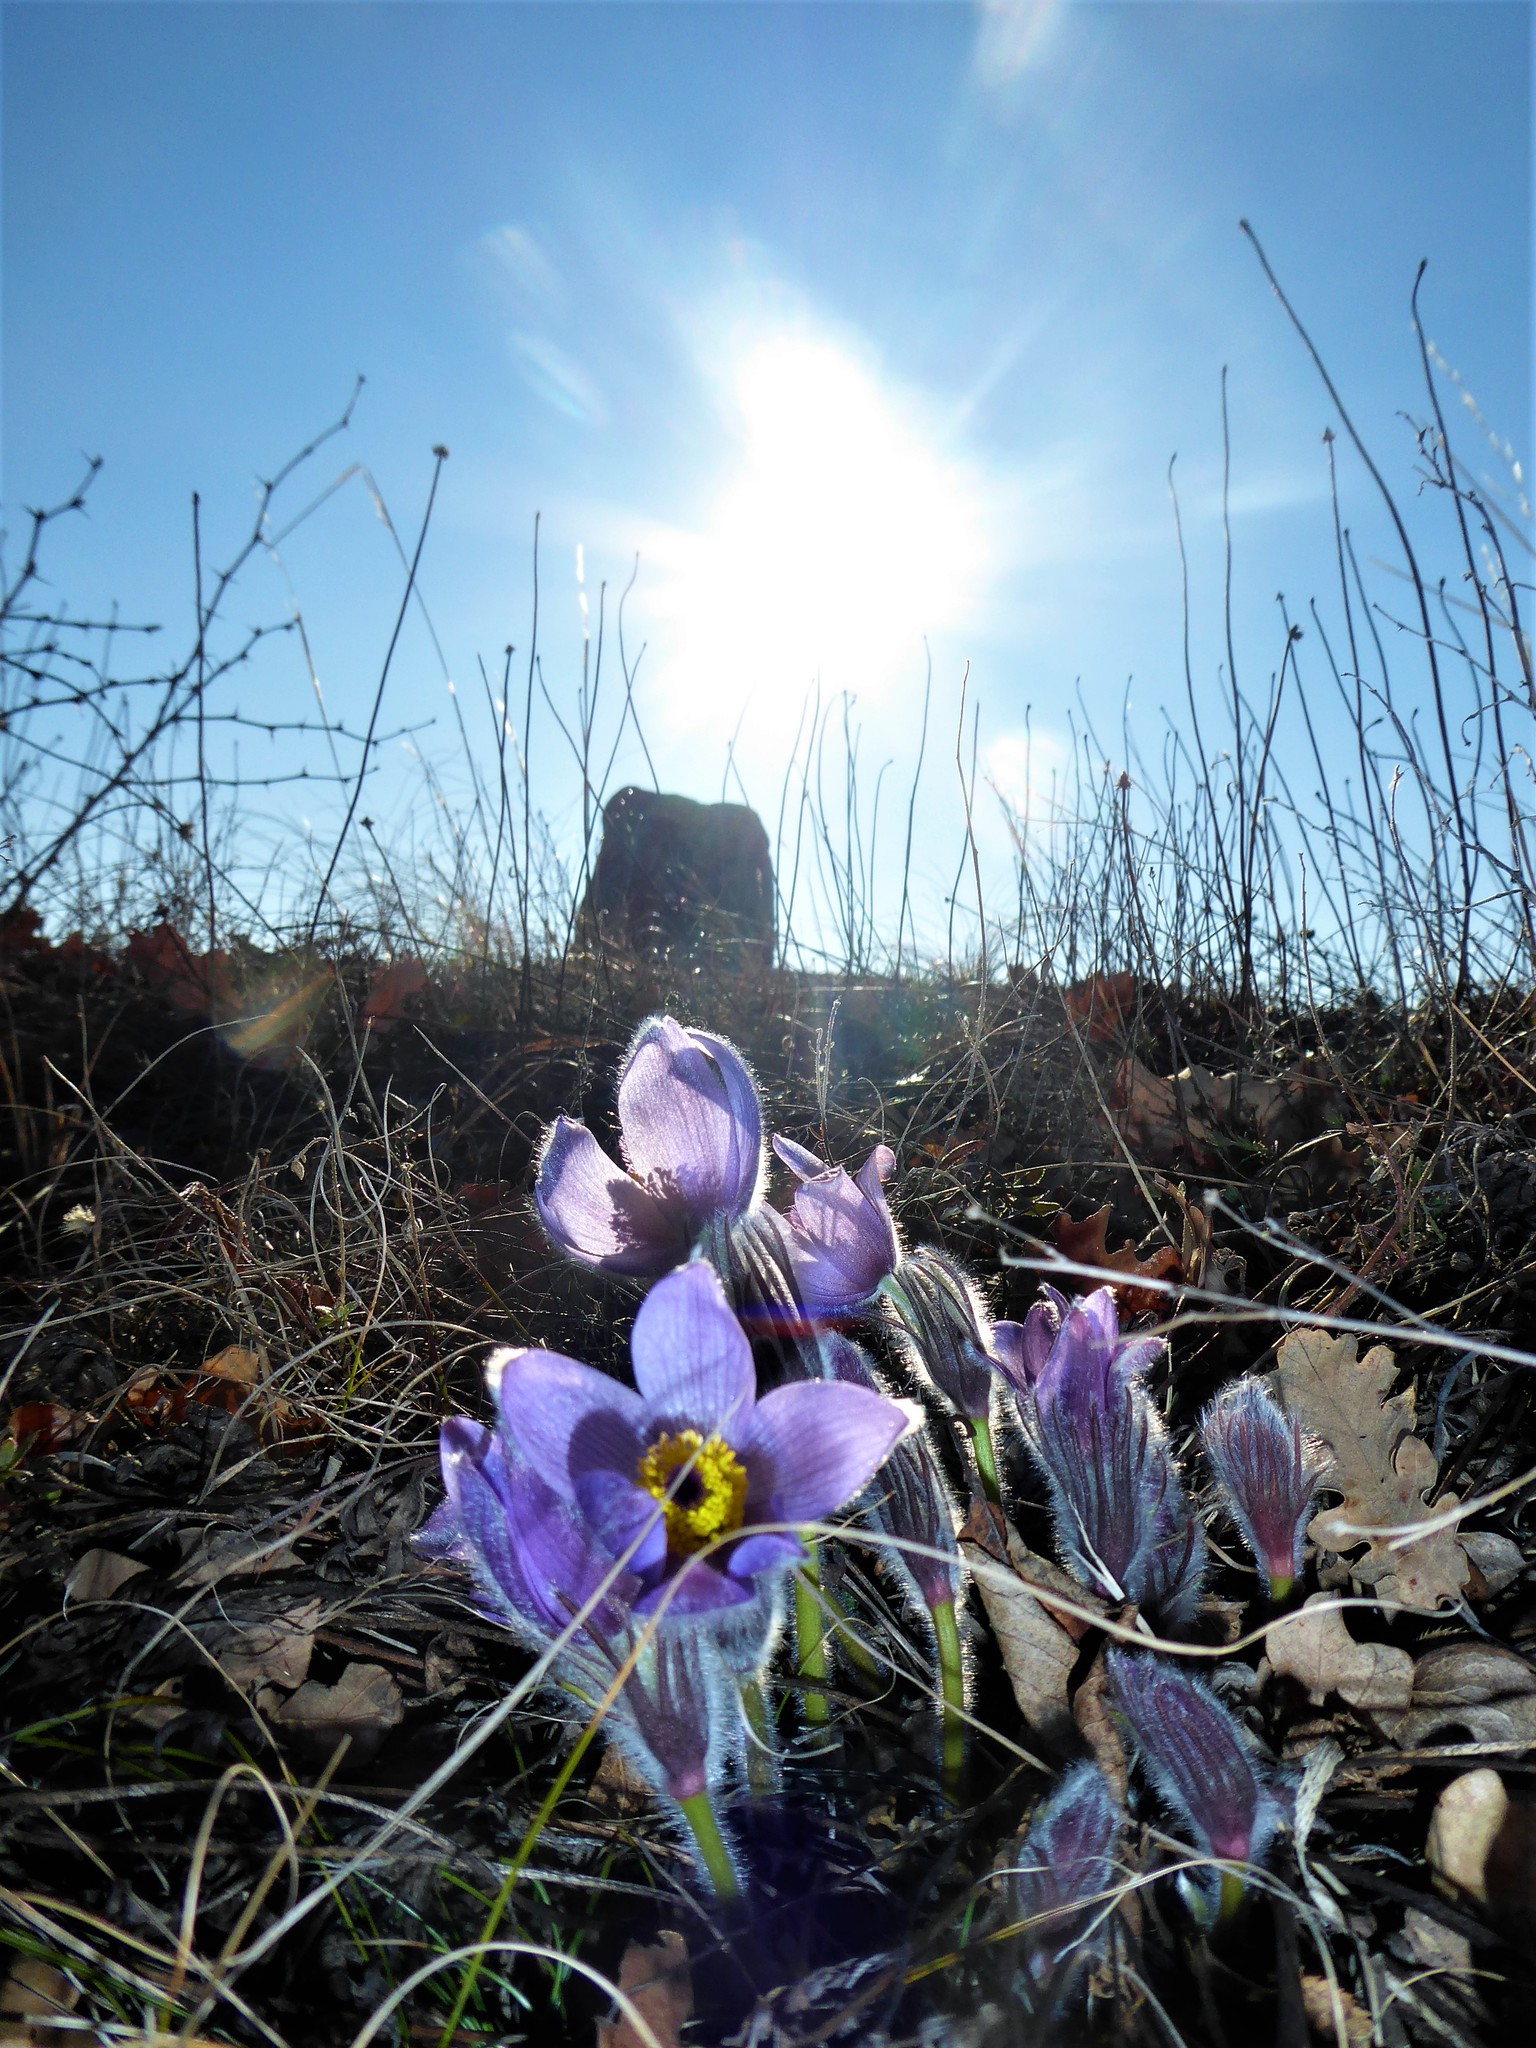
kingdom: Plantae
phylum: Tracheophyta
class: Magnoliopsida
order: Ranunculales
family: Ranunculaceae
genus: Pulsatilla
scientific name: Pulsatilla grandis
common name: Greater pasque flower
